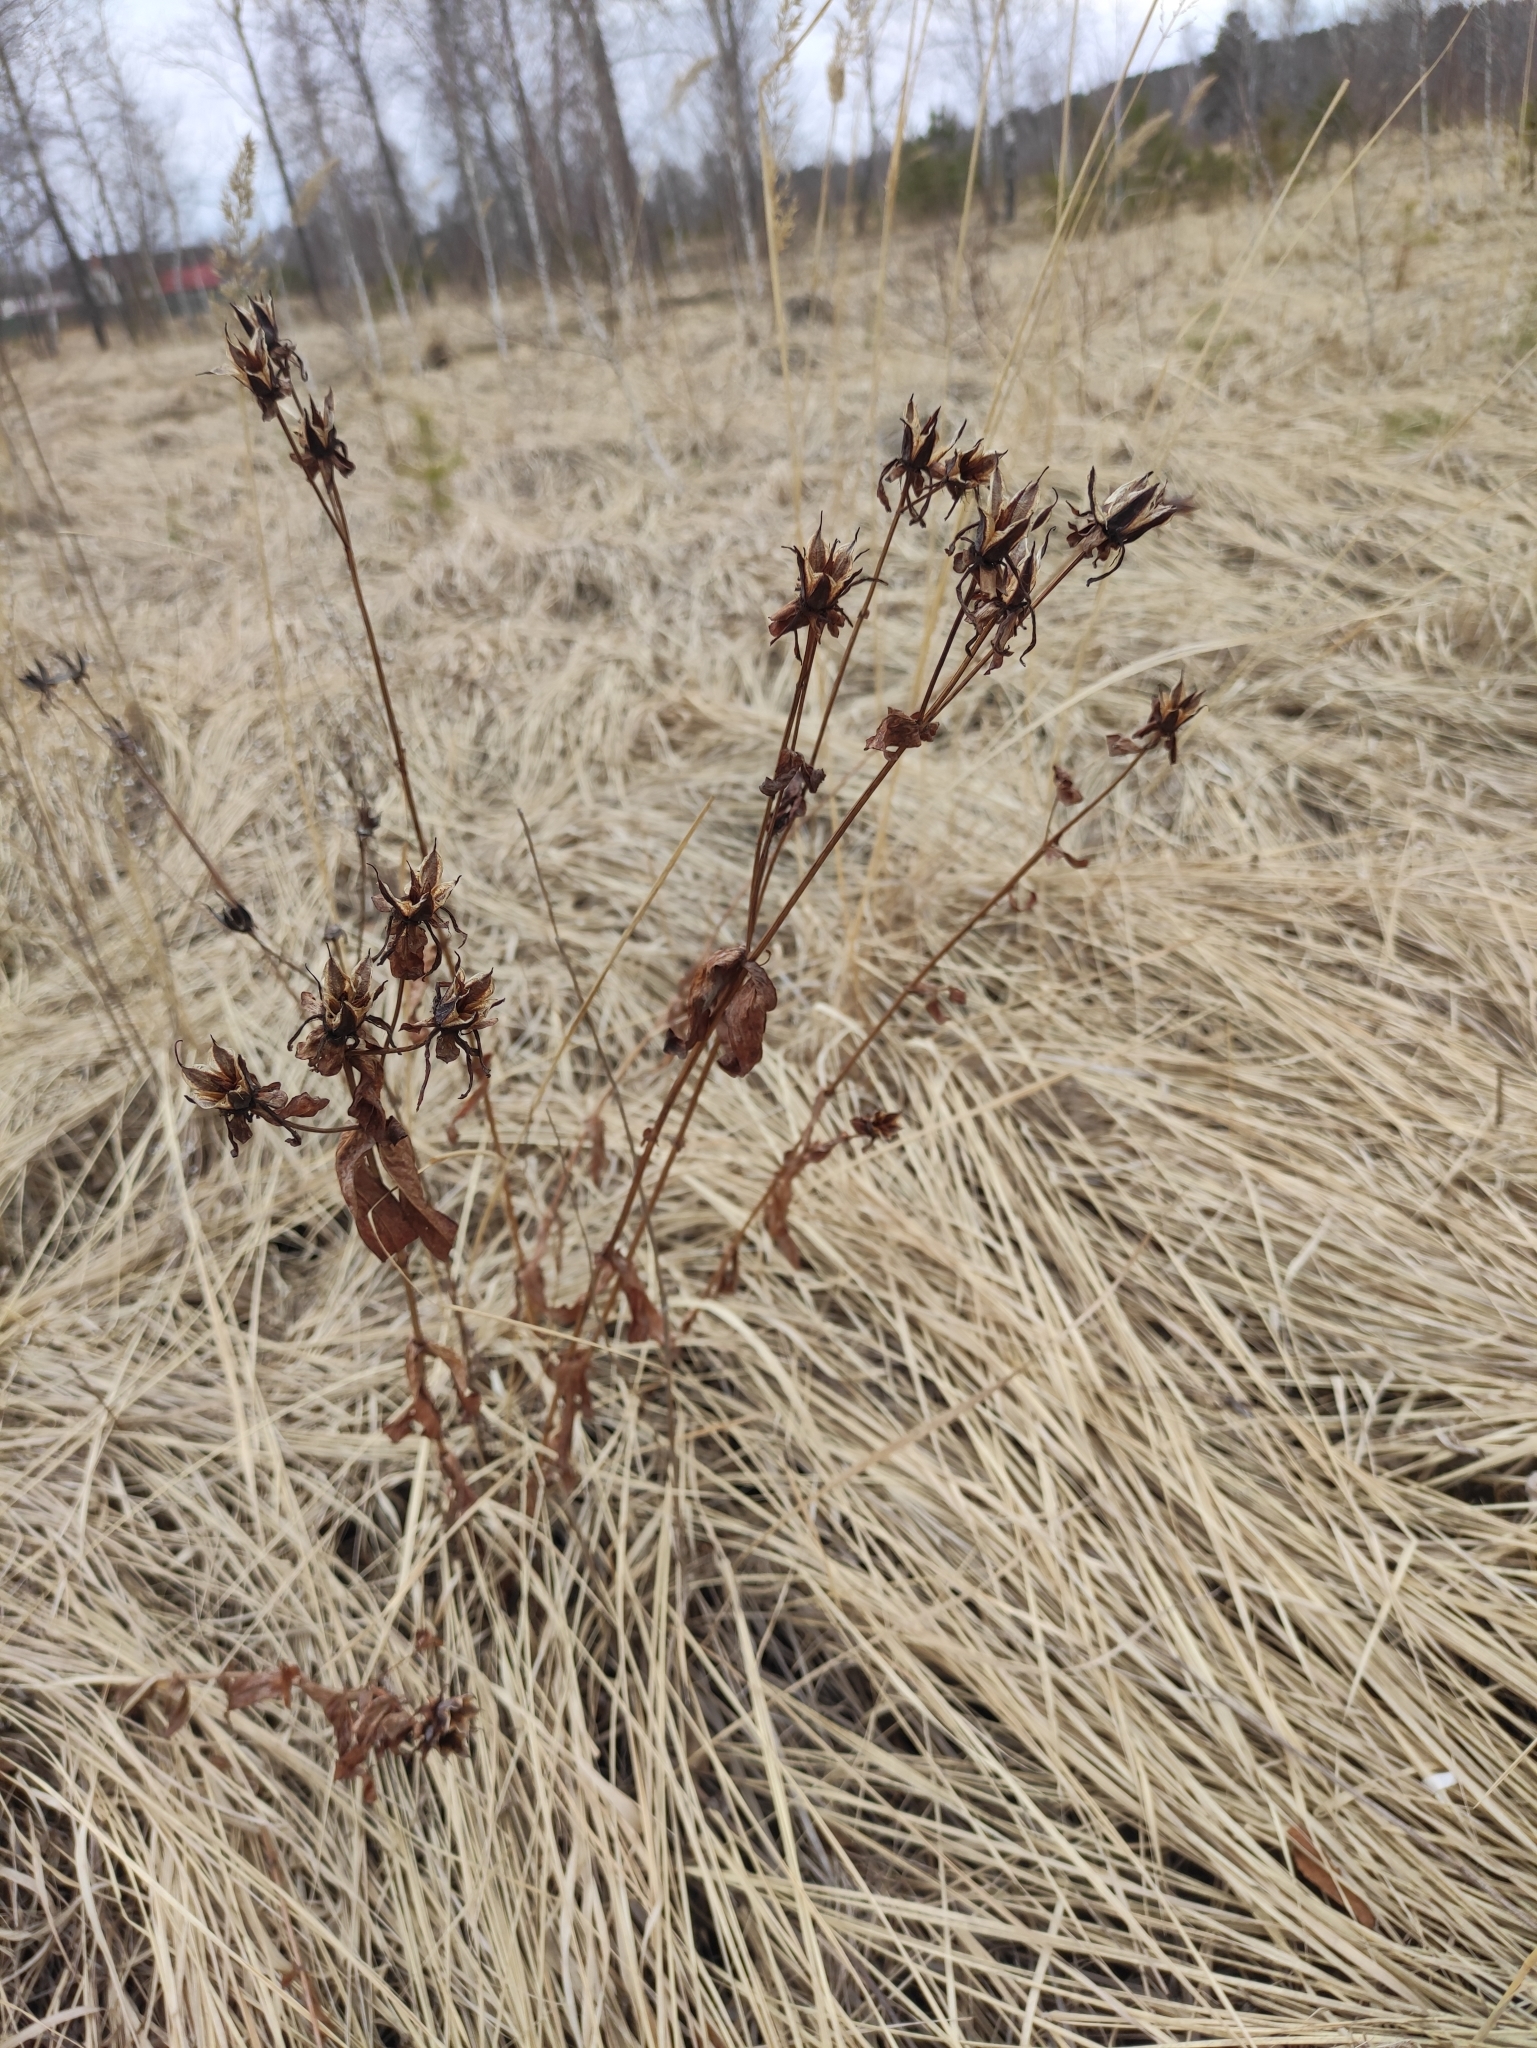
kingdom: Plantae
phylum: Tracheophyta
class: Magnoliopsida
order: Malpighiales
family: Hypericaceae
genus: Hypericum
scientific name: Hypericum ascyron
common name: Giant st. john's-wort
